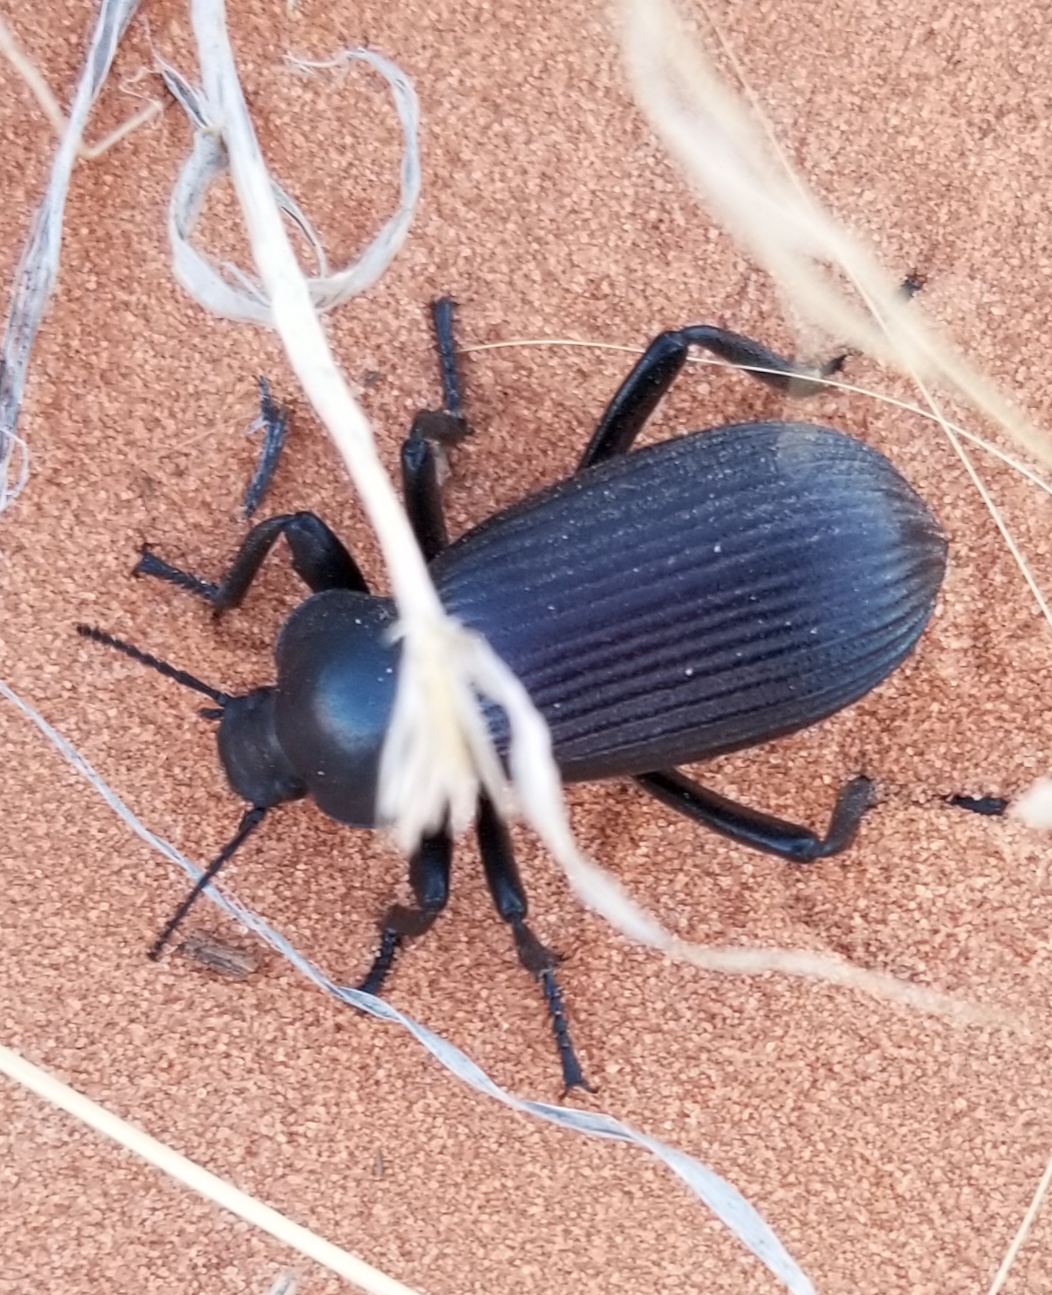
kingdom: Animalia
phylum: Arthropoda
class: Insecta
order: Coleoptera
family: Tenebrionidae
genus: Eleodes
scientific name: Eleodes obscura
